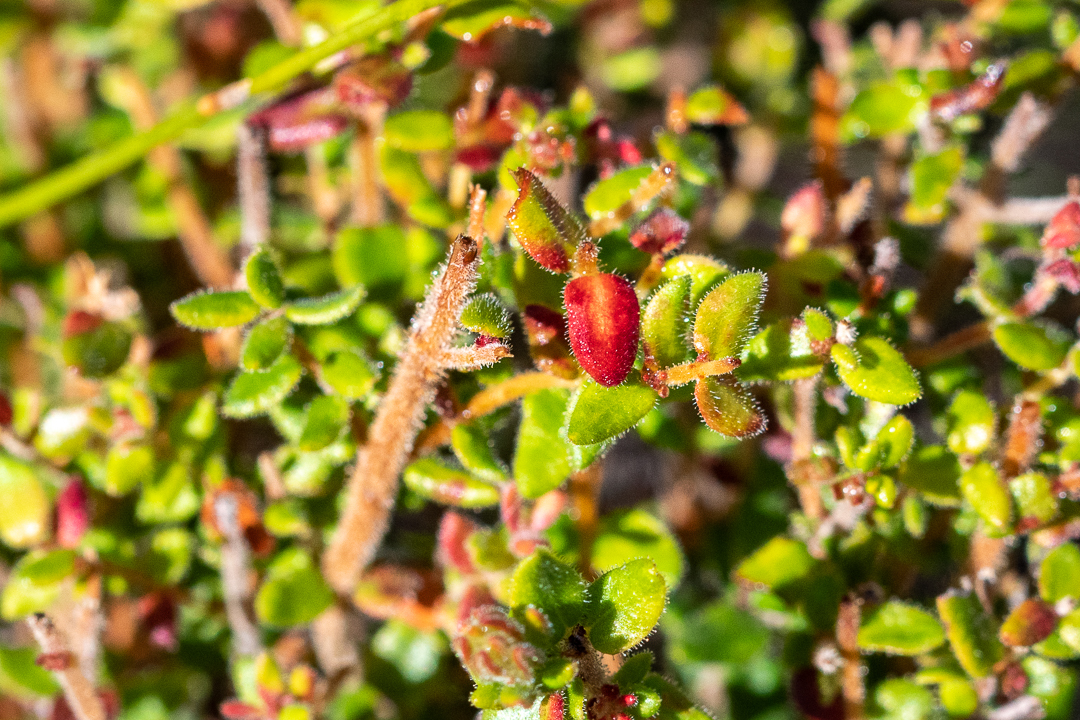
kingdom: Plantae
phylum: Tracheophyta
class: Magnoliopsida
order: Ericales
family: Ericaceae
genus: Erica
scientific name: Erica hirta
